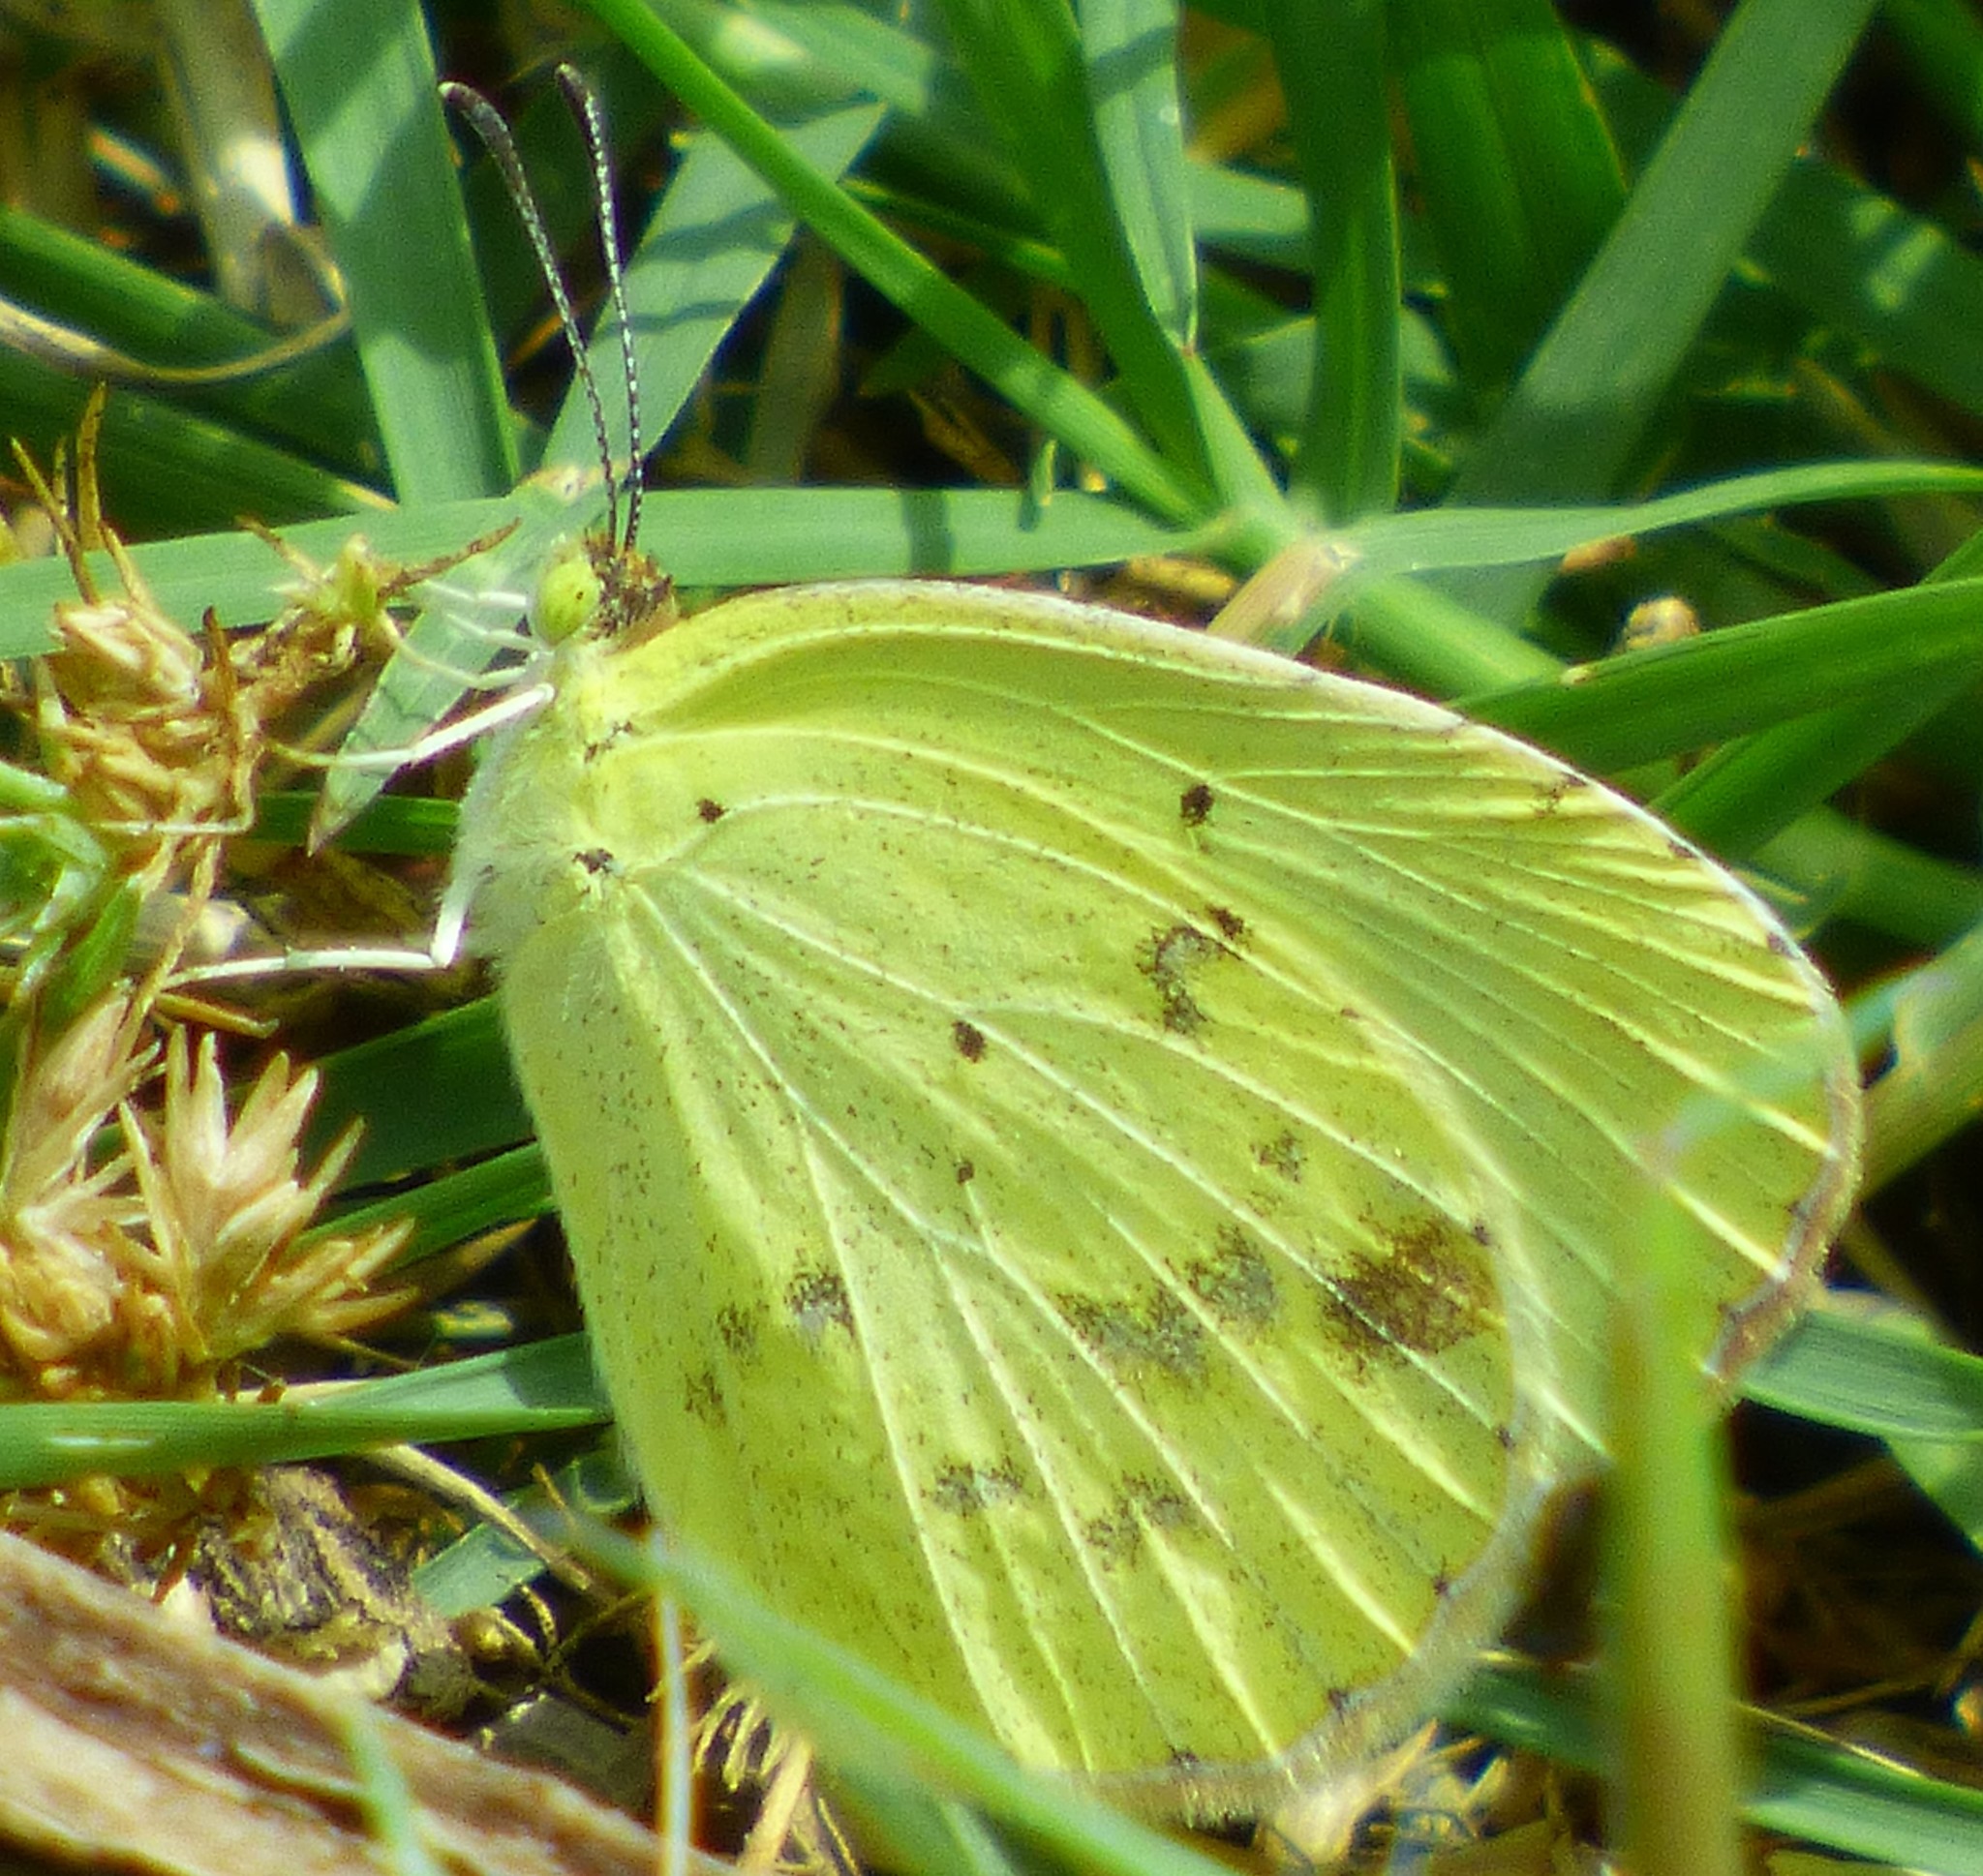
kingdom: Animalia
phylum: Arthropoda
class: Insecta
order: Lepidoptera
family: Pieridae
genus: Pyrisitia
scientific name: Pyrisitia lisa
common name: Little yellow
